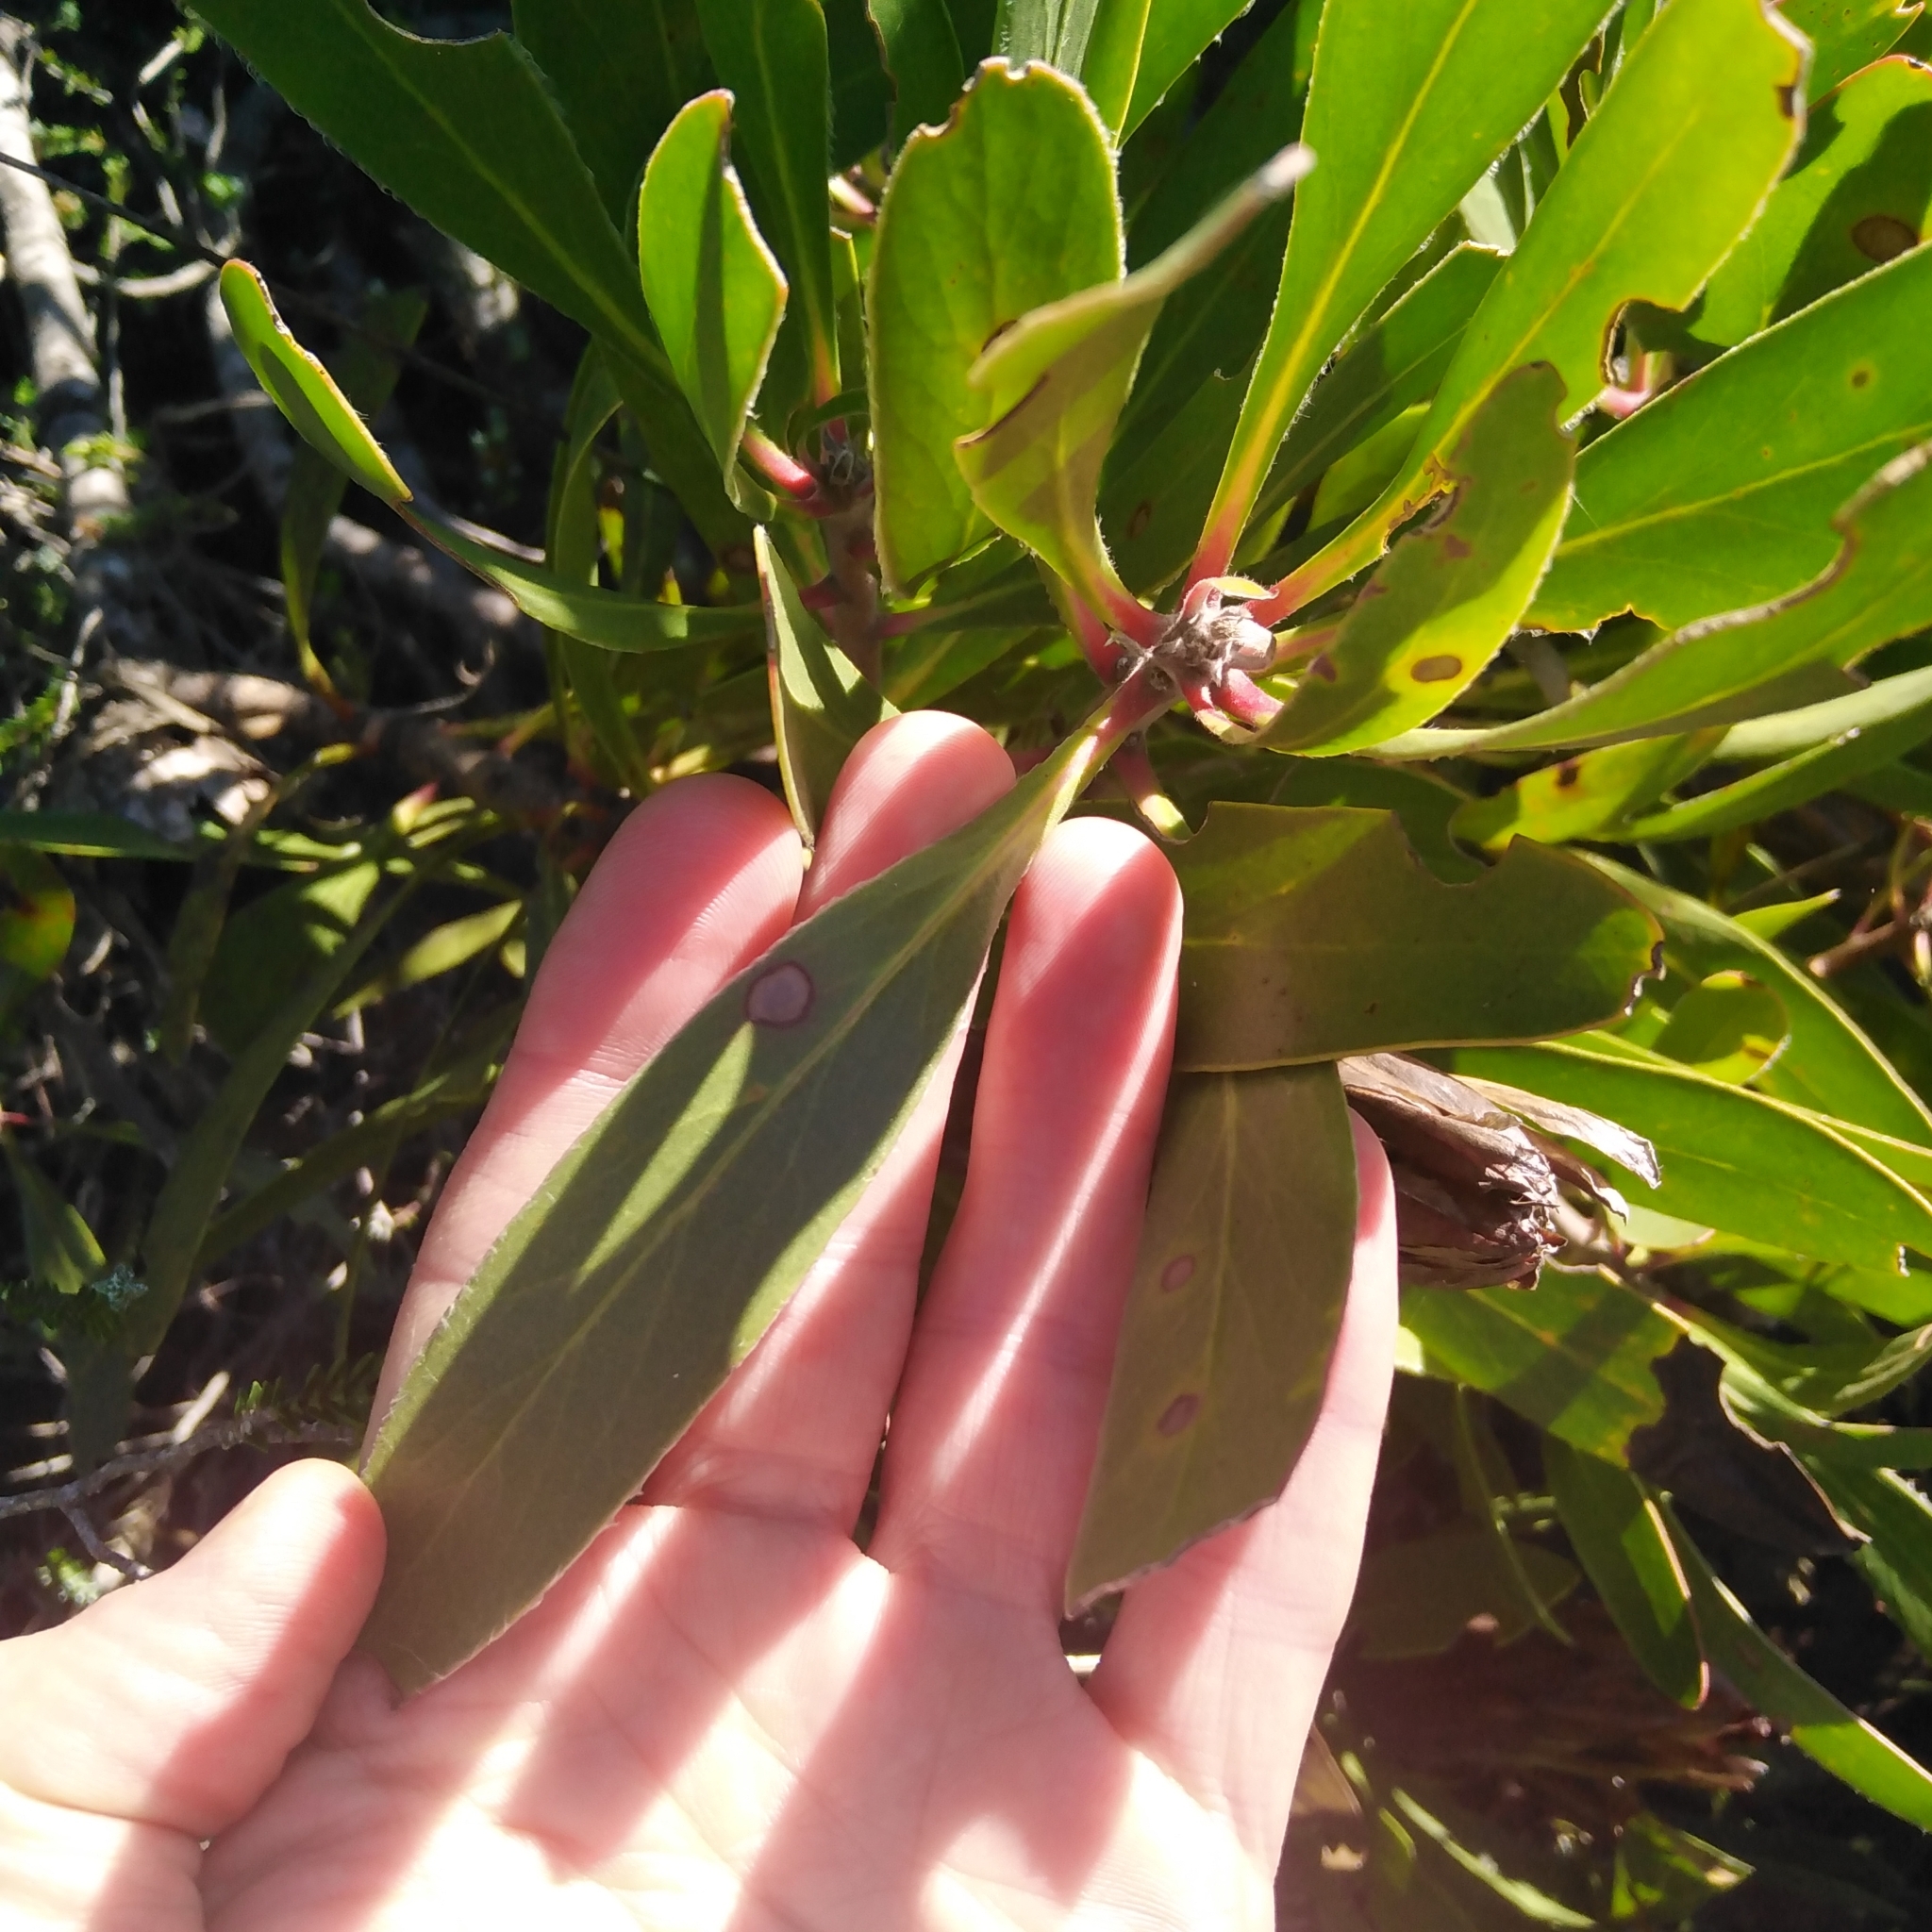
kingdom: Plantae
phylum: Tracheophyta
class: Magnoliopsida
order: Proteales
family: Proteaceae
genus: Protea
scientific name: Protea obtusifolia
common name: Bredasdorp sugarbush
